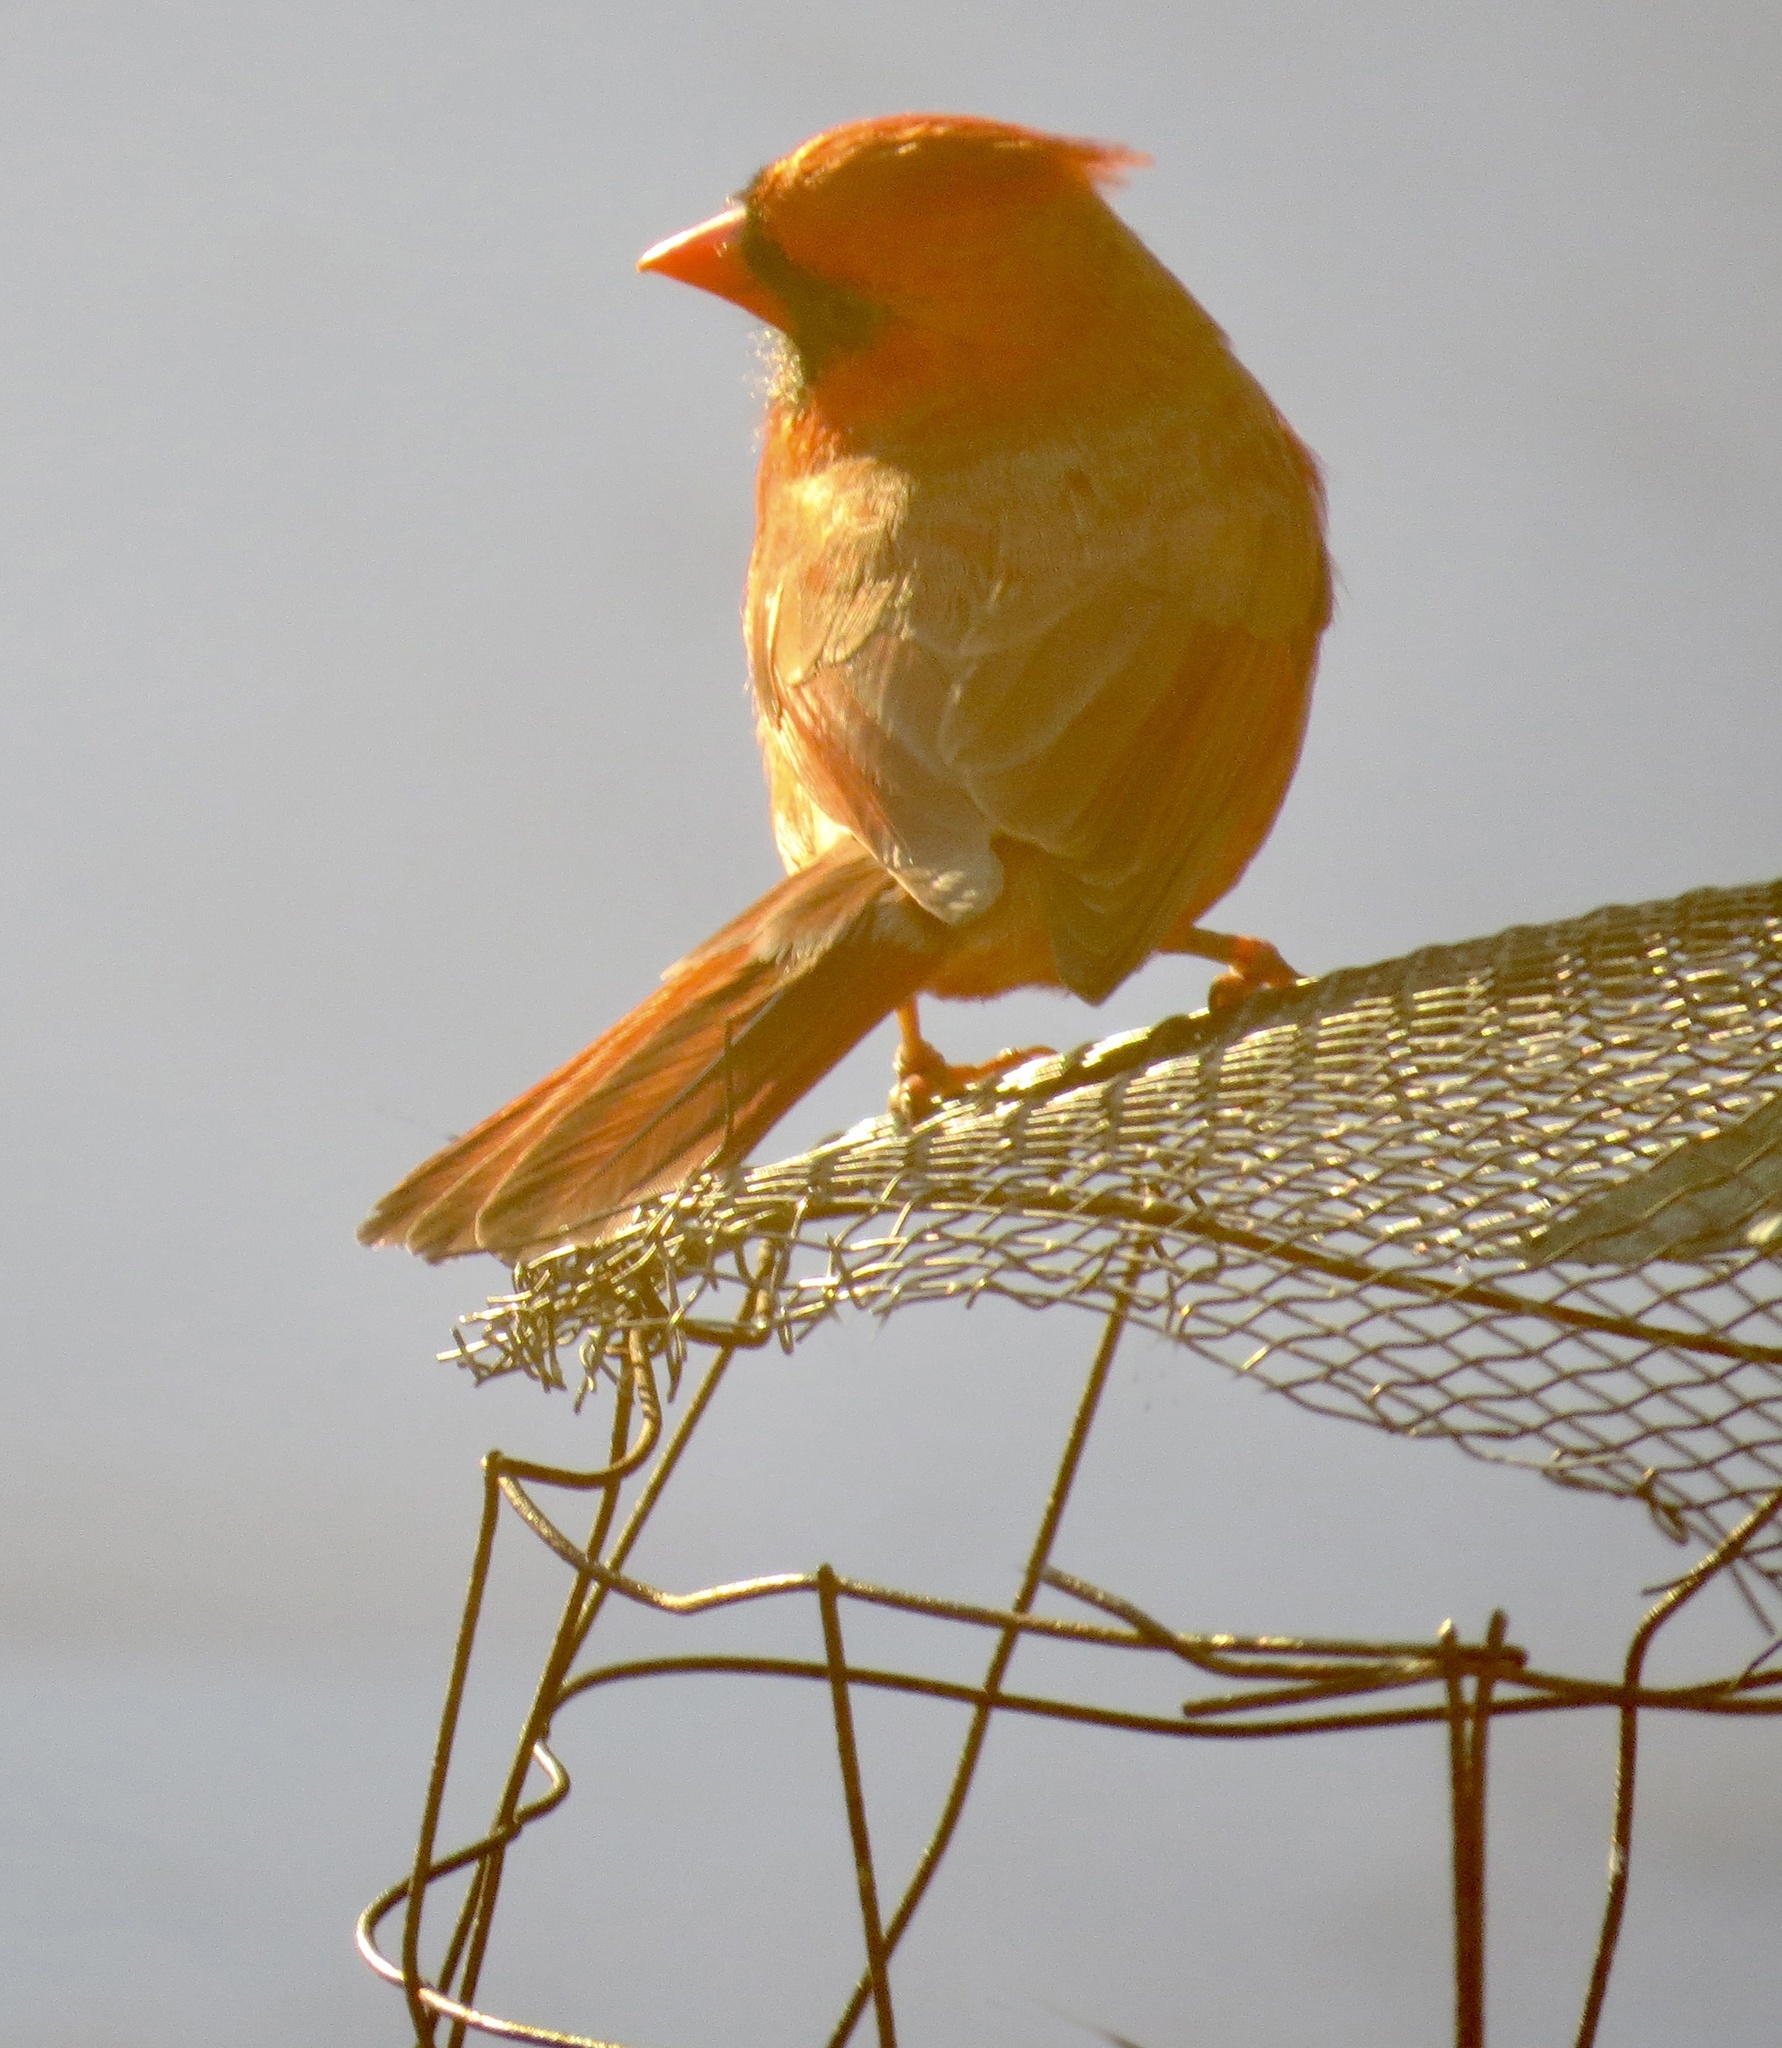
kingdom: Animalia
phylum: Chordata
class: Aves
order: Passeriformes
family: Cardinalidae
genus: Cardinalis
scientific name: Cardinalis cardinalis
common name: Northern cardinal
